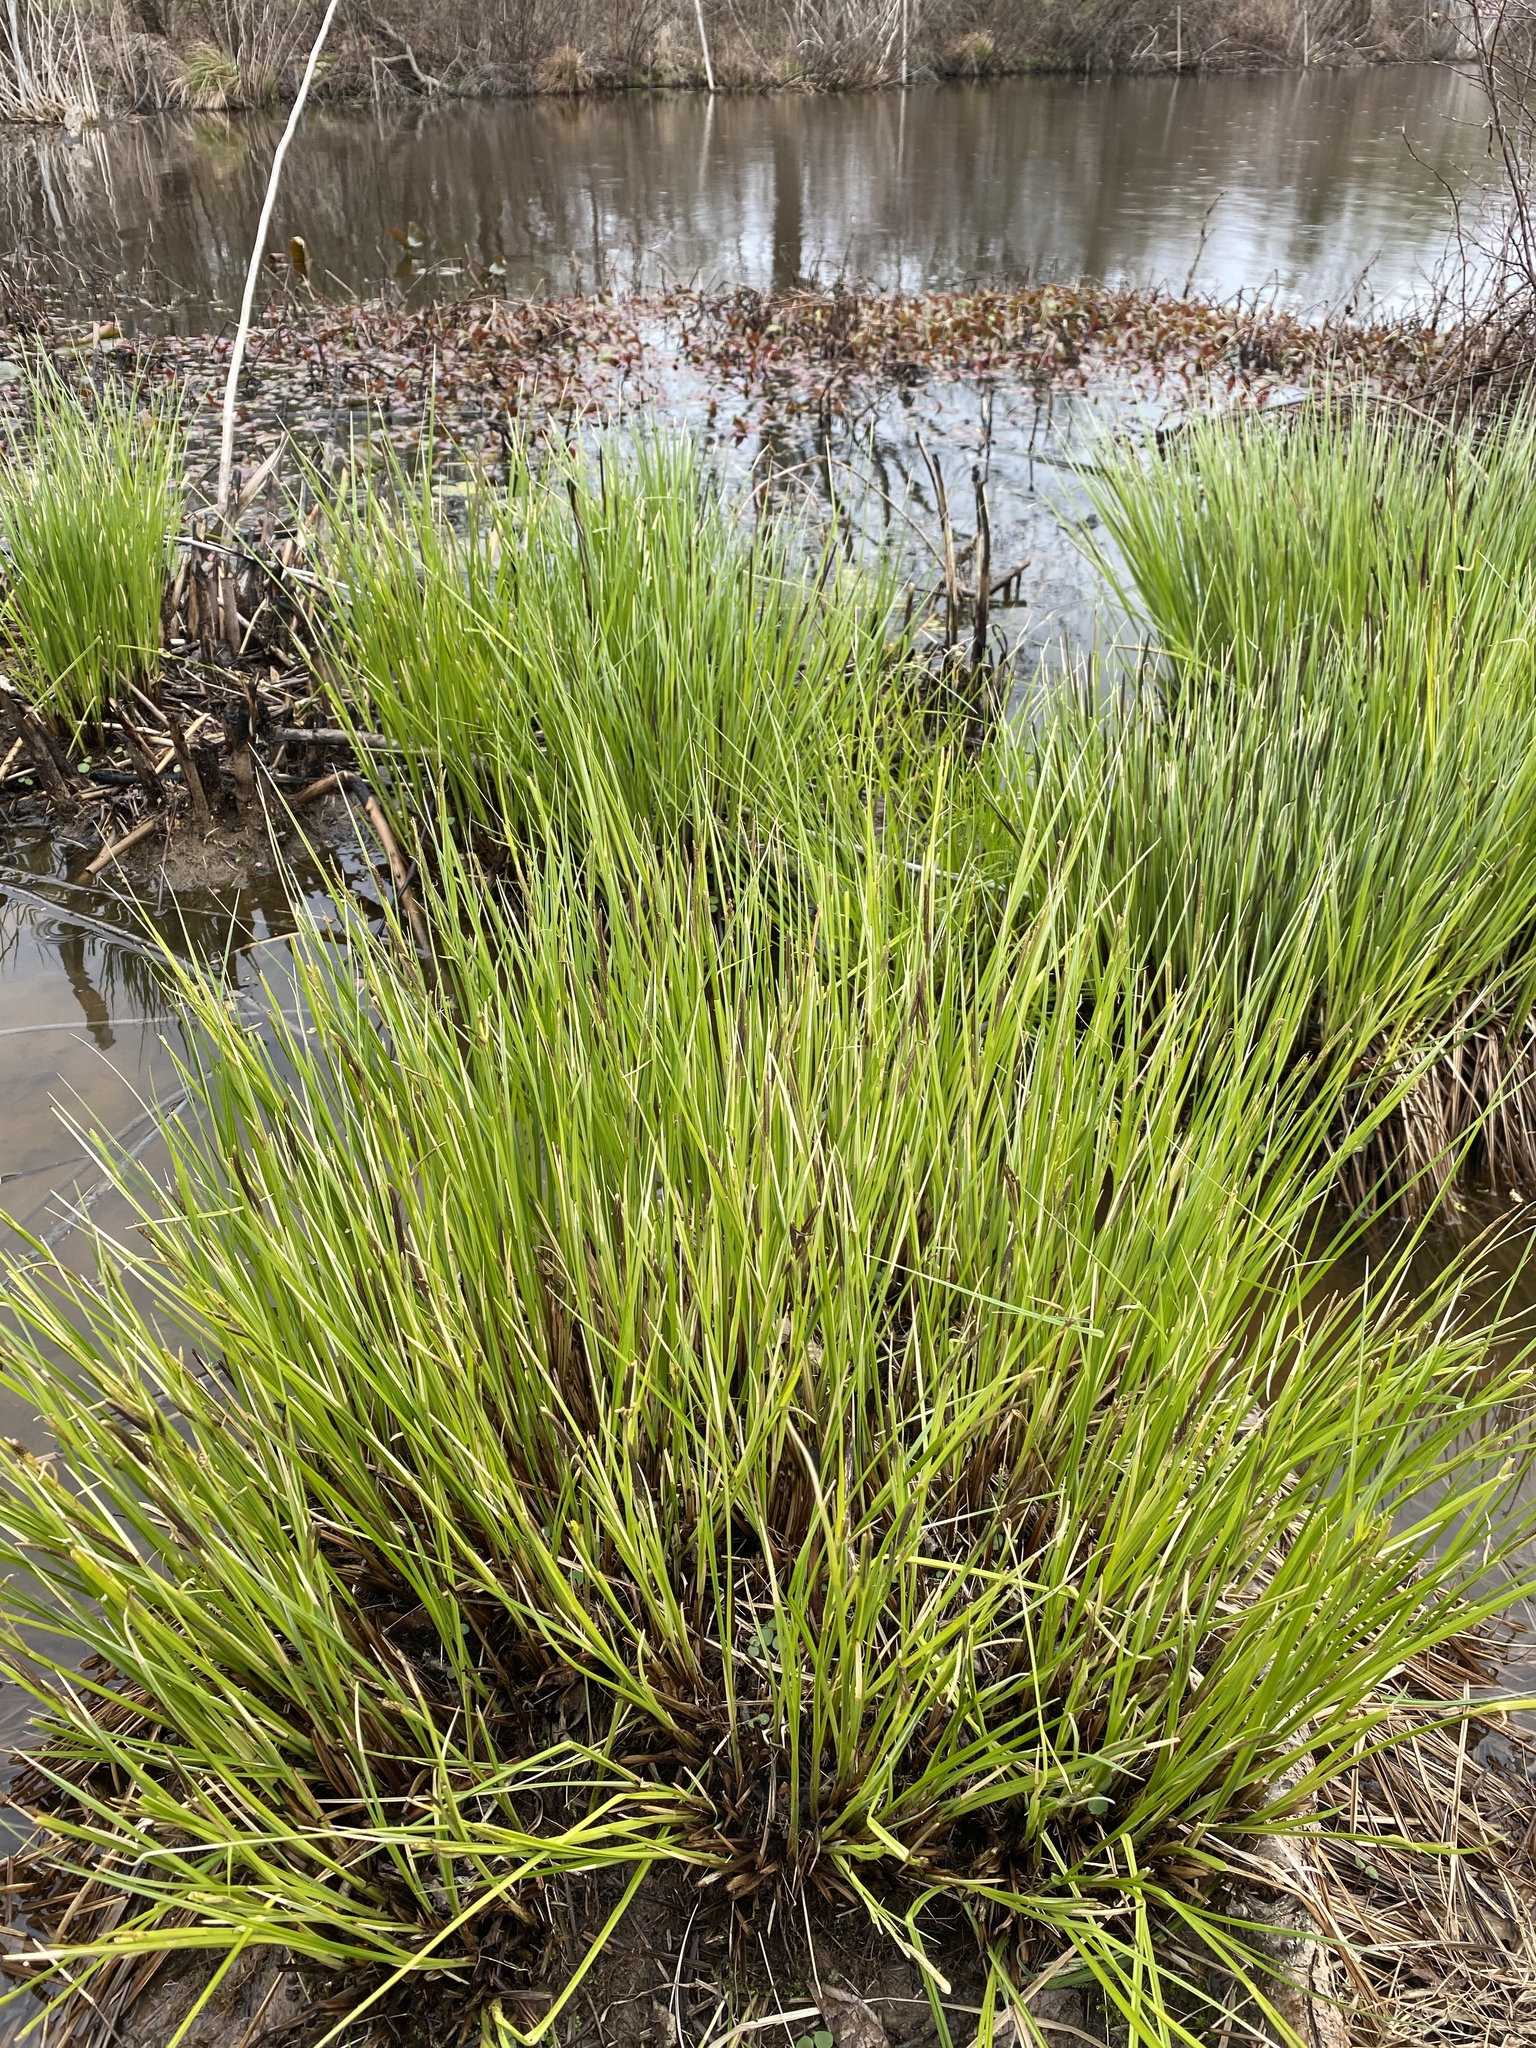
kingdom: Plantae
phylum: Tracheophyta
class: Liliopsida
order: Poales
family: Cyperaceae
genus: Carex
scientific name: Carex stricta
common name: Hummock sedge
